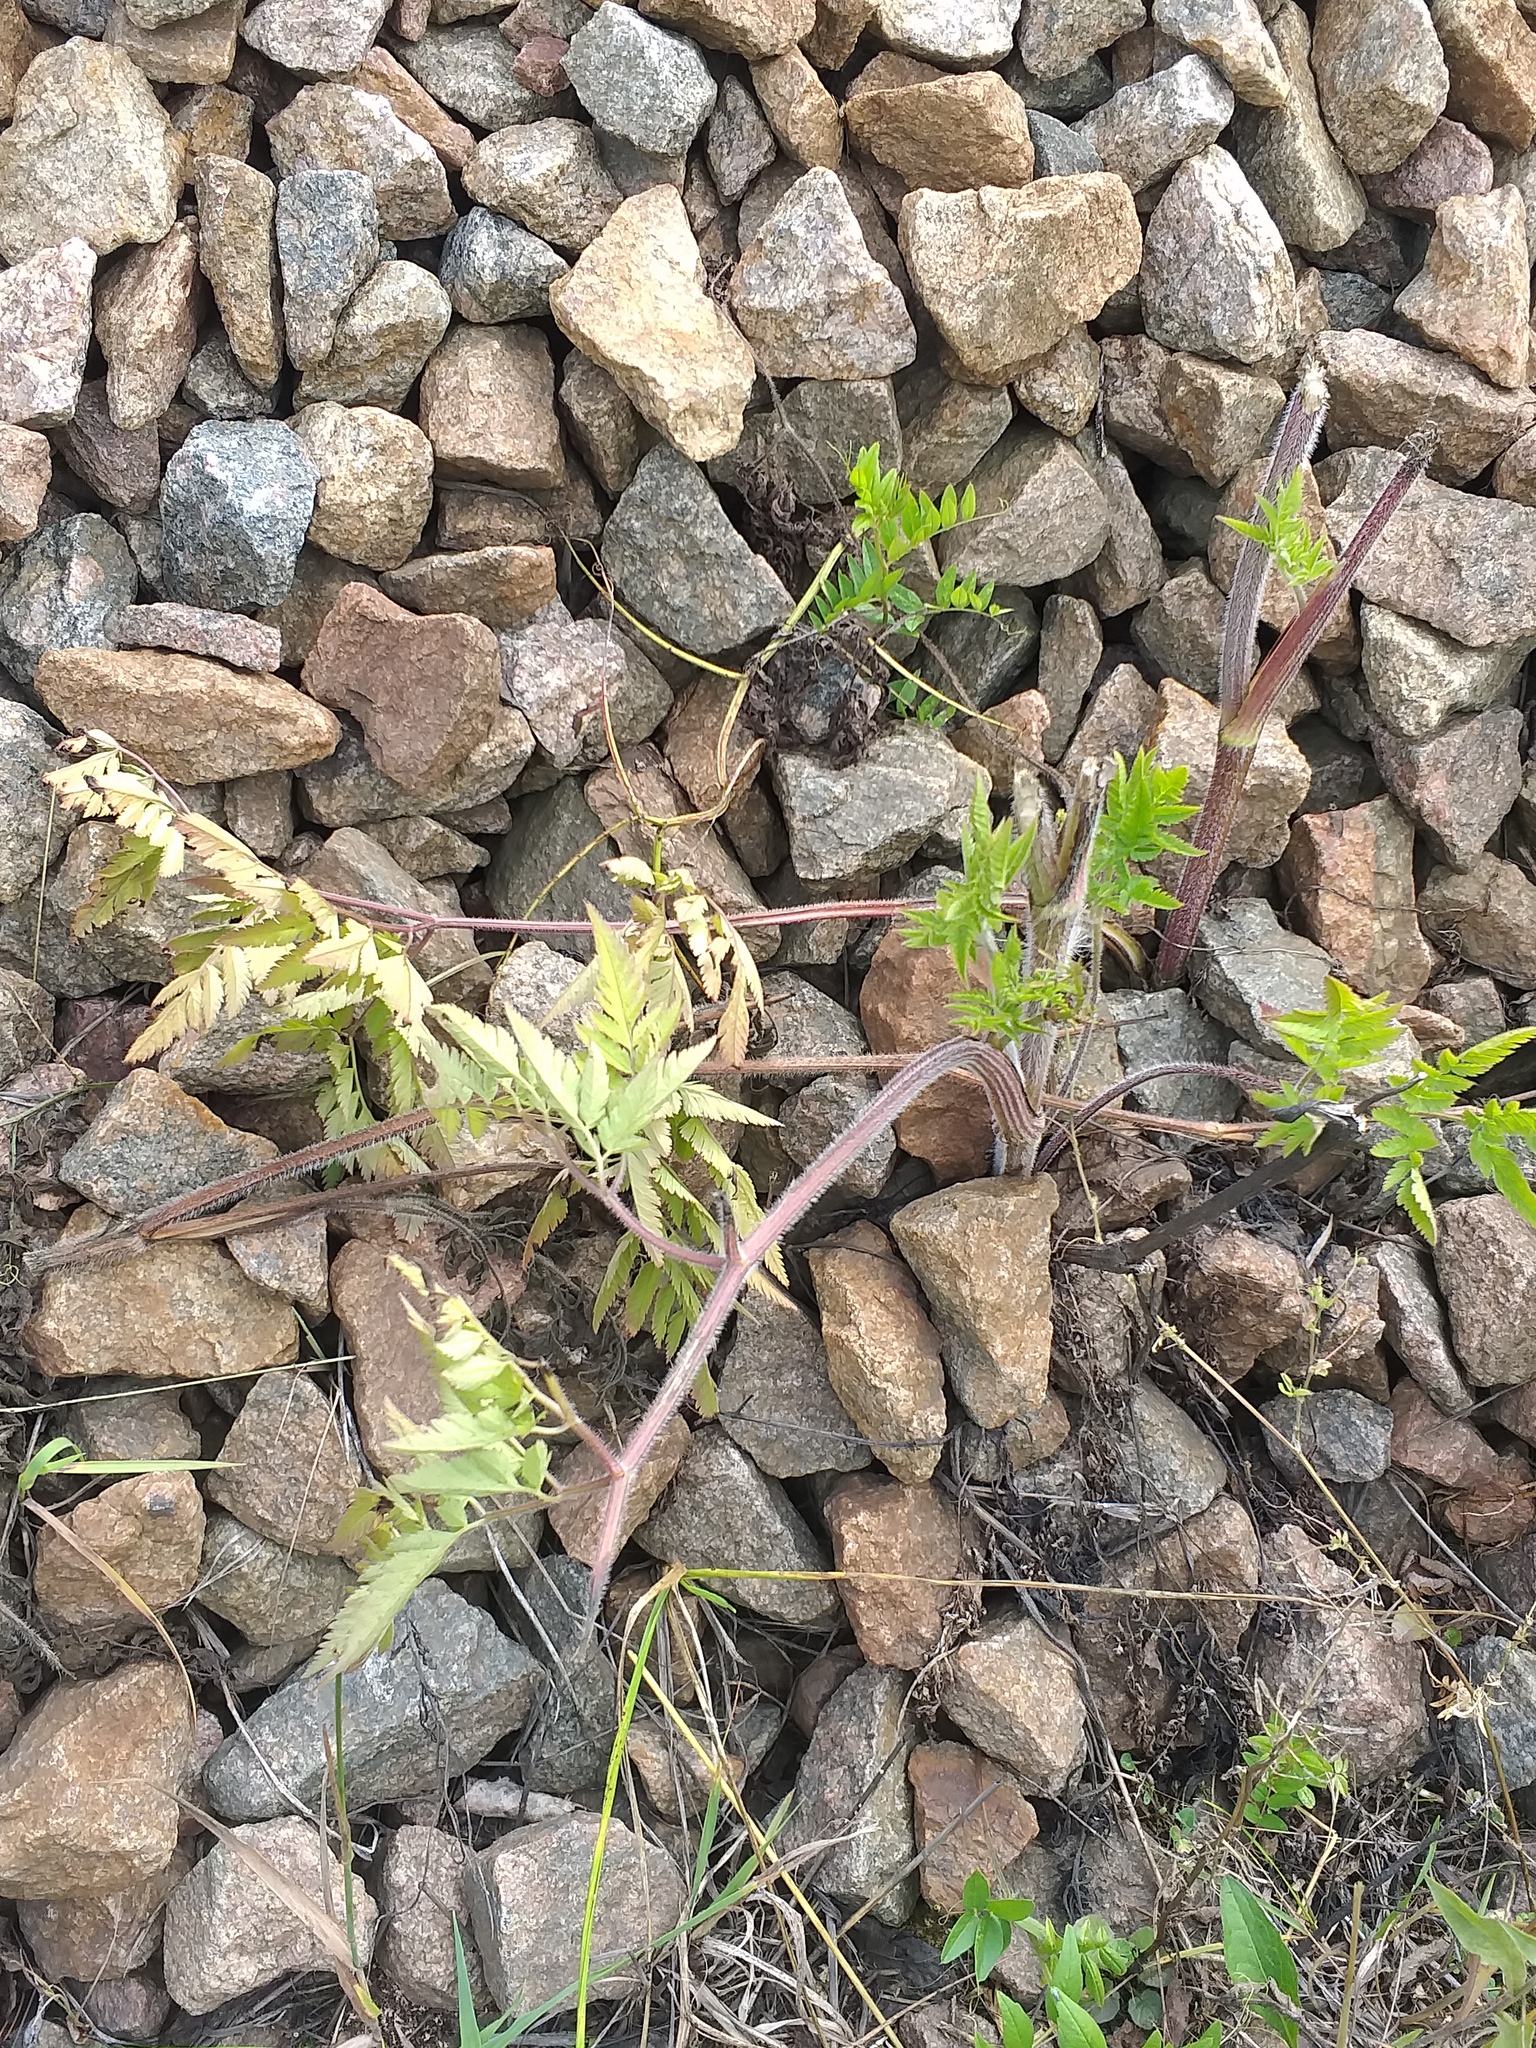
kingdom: Plantae
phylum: Tracheophyta
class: Magnoliopsida
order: Apiales
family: Apiaceae
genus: Chaerophyllum
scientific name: Chaerophyllum aureum
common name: Golden chervil
